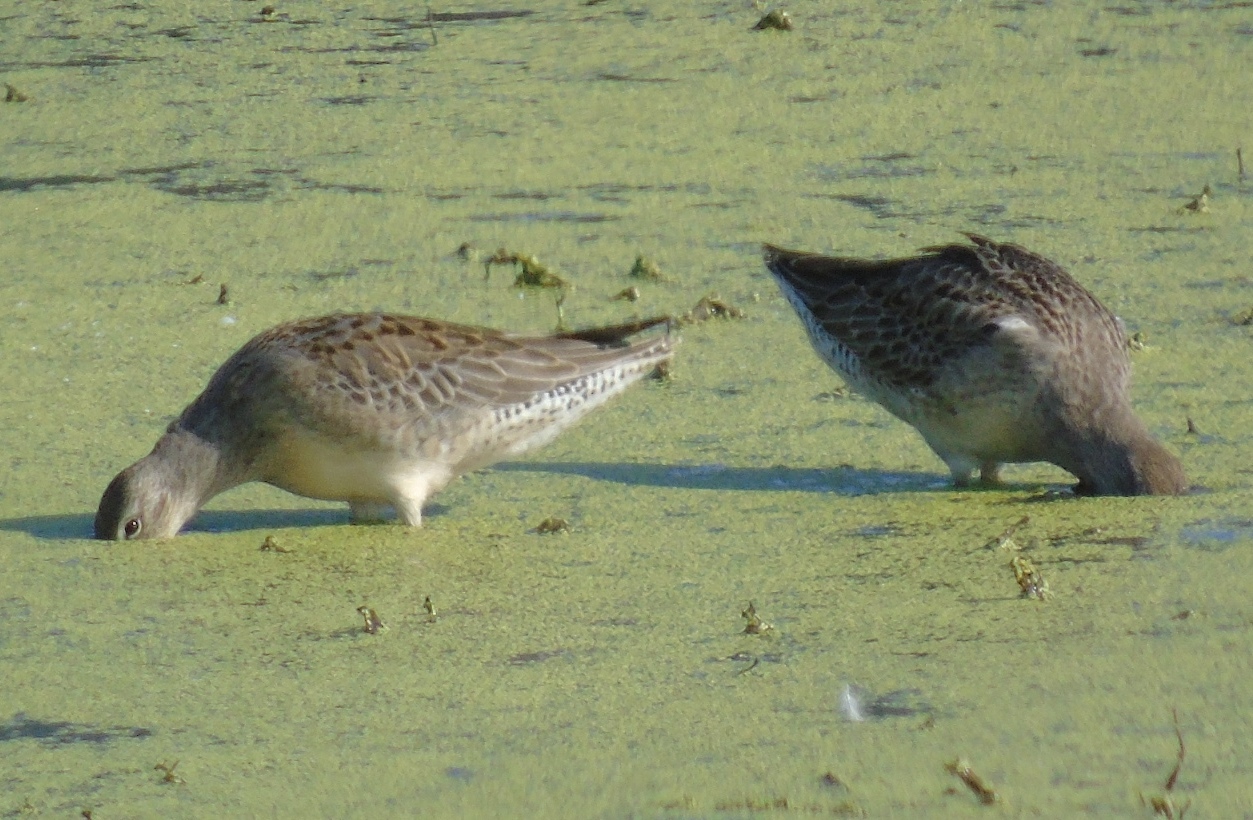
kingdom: Animalia
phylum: Chordata
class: Aves
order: Charadriiformes
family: Scolopacidae
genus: Limnodromus
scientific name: Limnodromus scolopaceus
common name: Long-billed dowitcher
